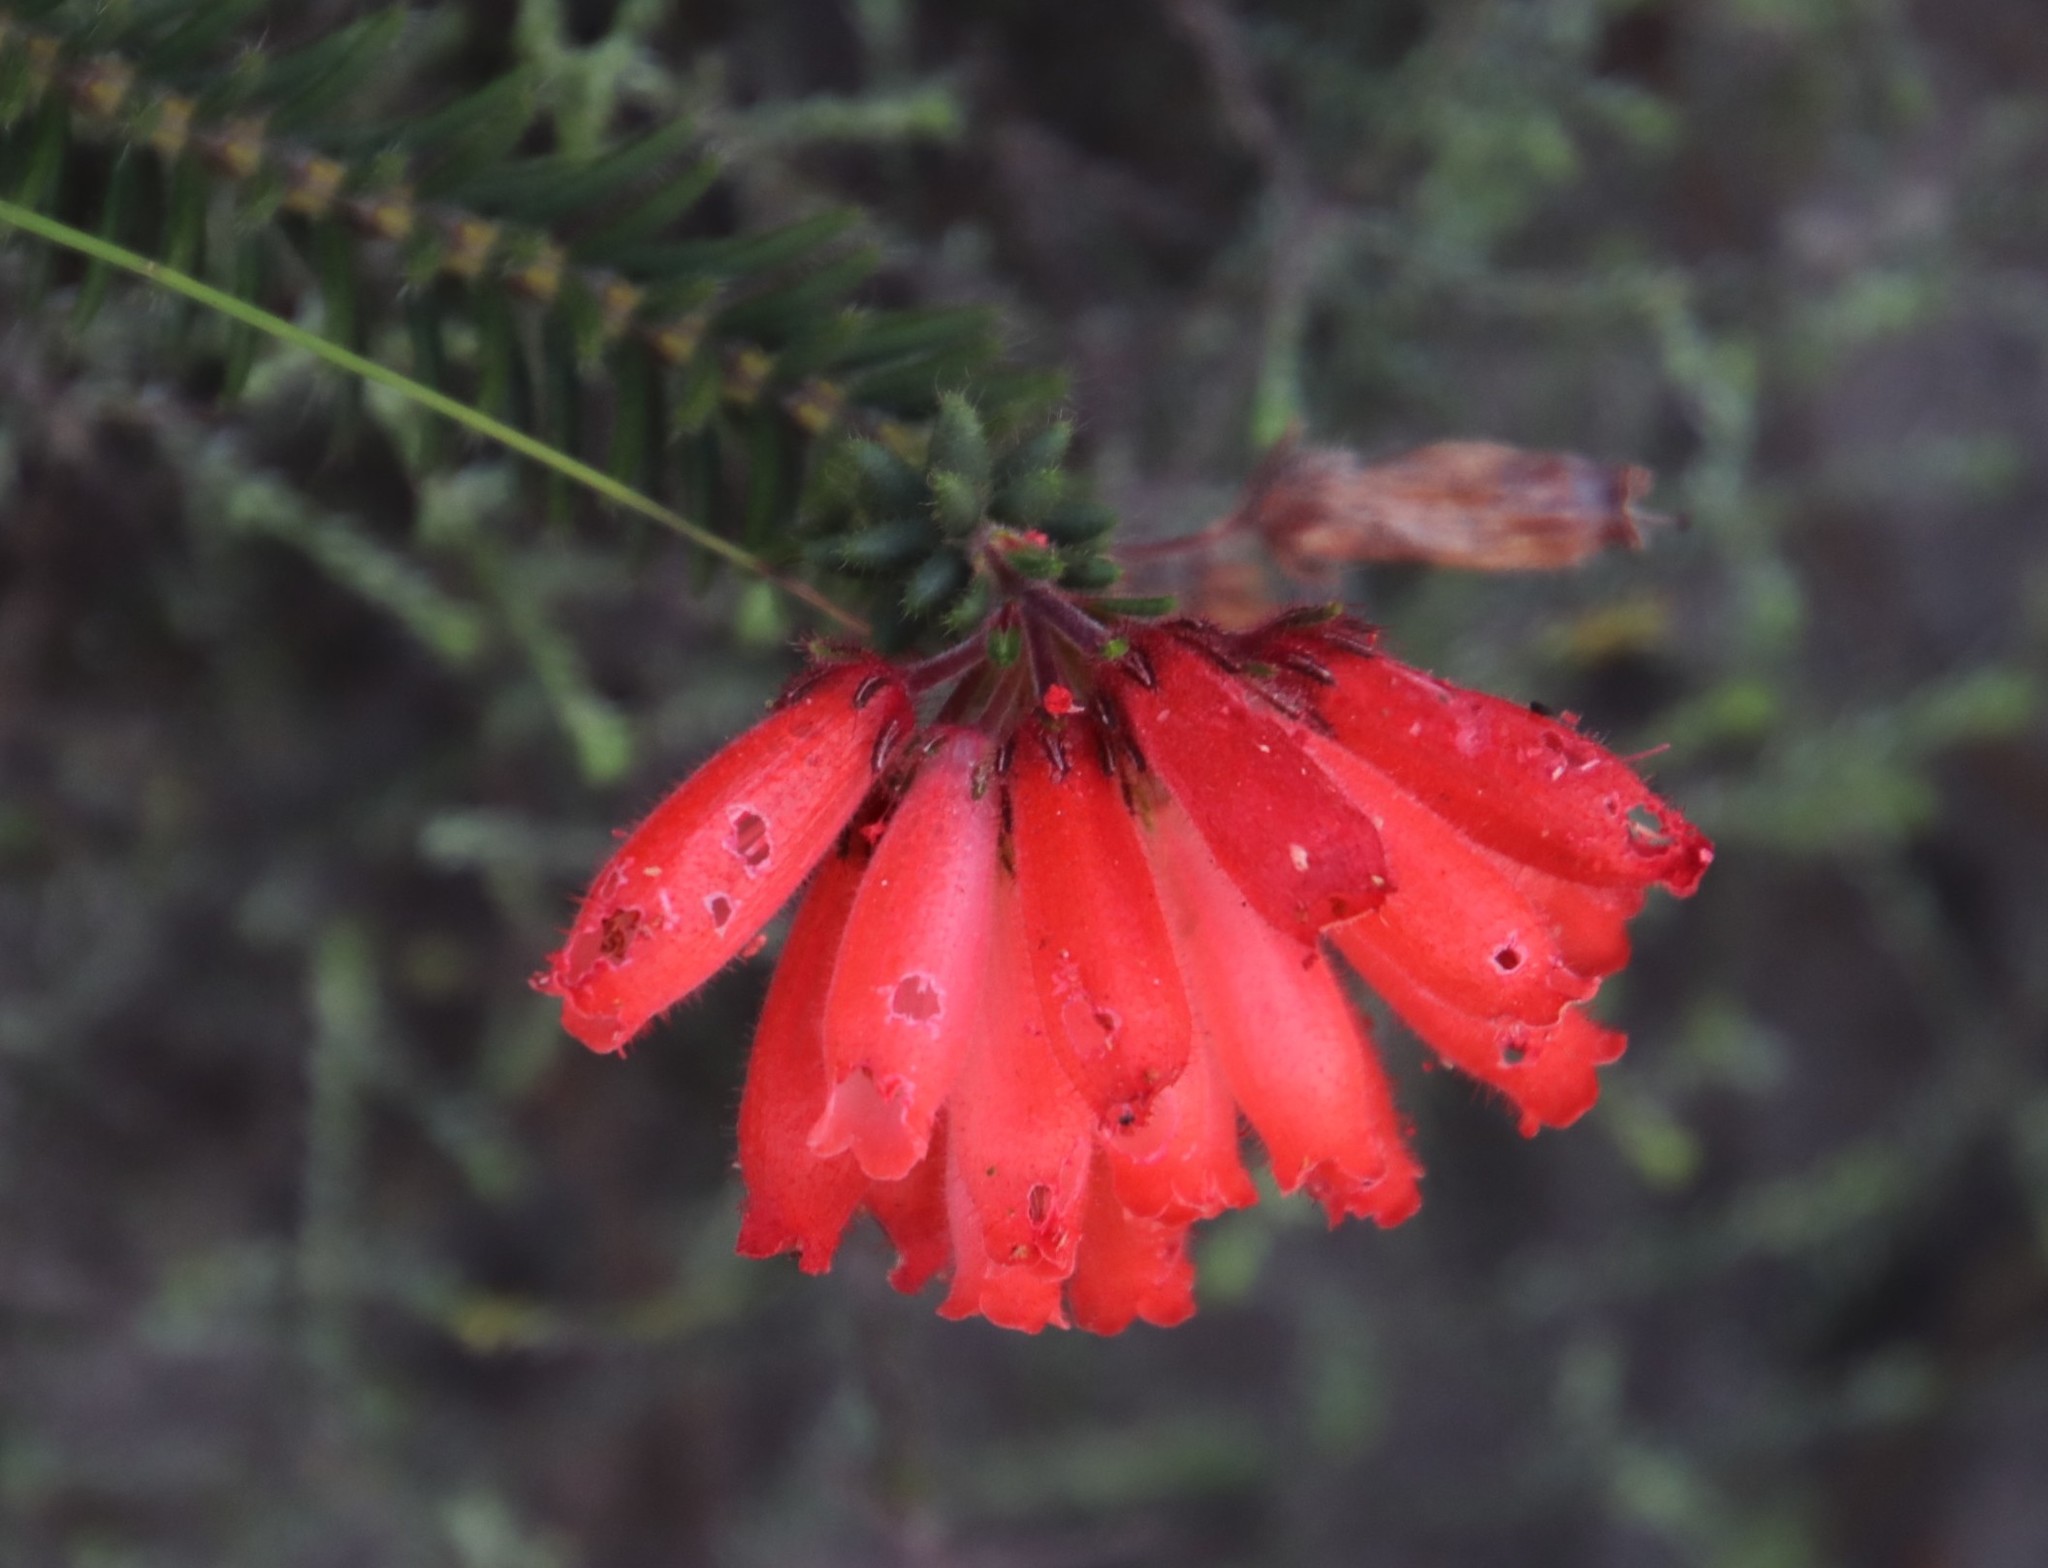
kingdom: Plantae
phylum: Tracheophyta
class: Magnoliopsida
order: Ericales
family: Ericaceae
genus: Erica
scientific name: Erica cerinthoides
